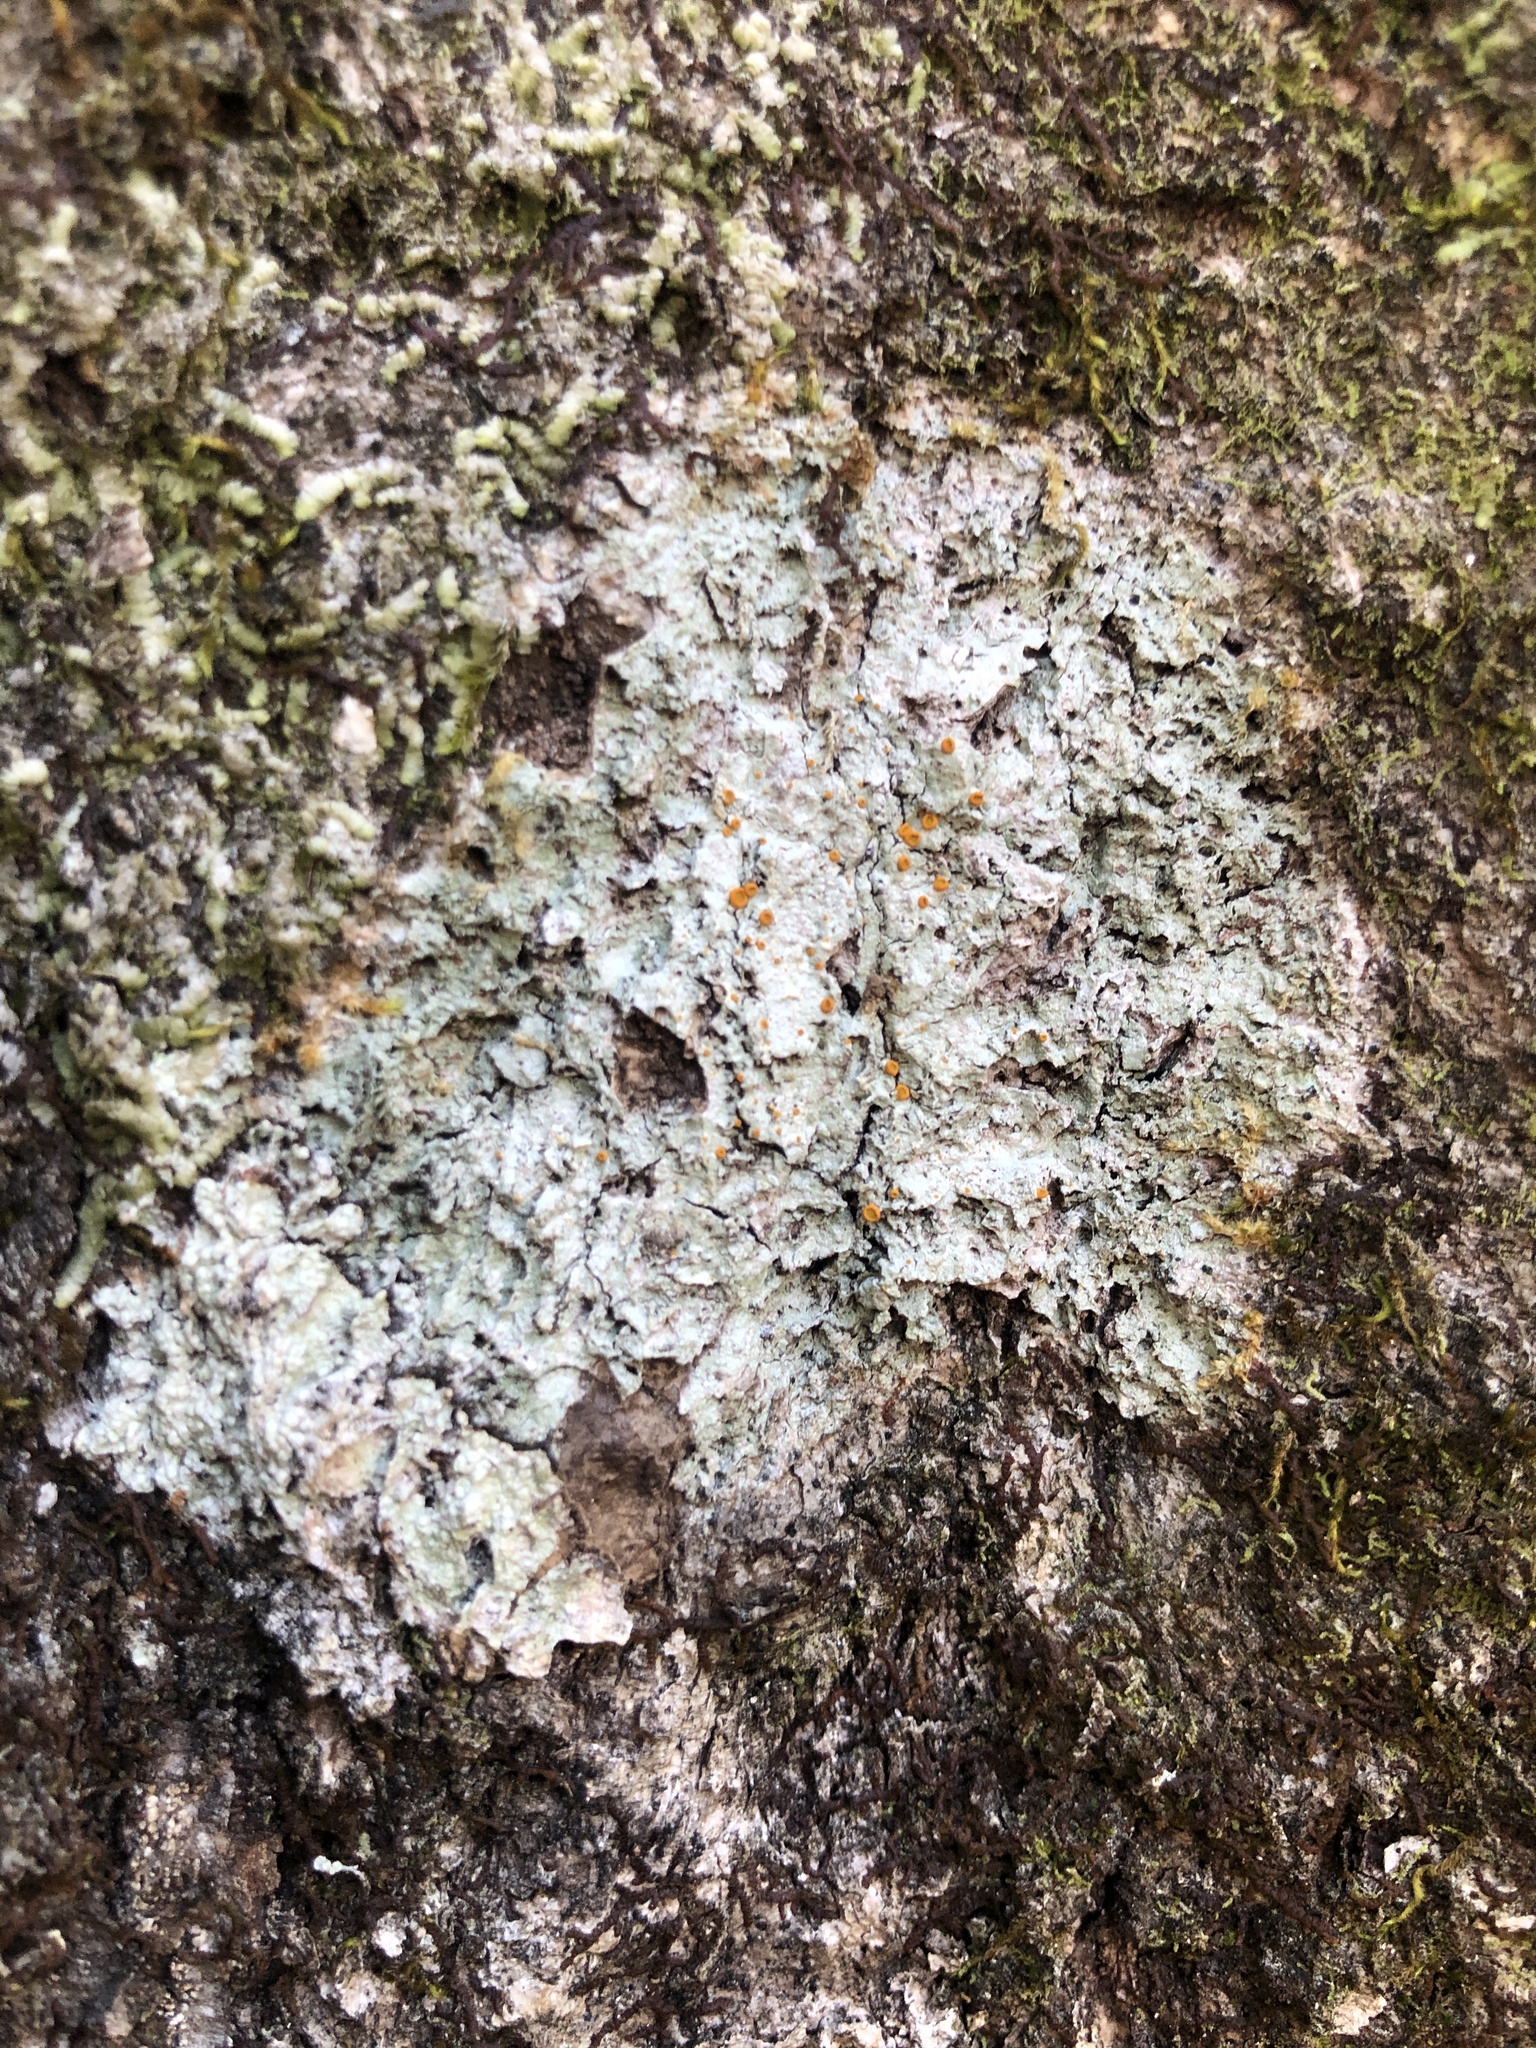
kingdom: Fungi
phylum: Ascomycota
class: Lecanoromycetes
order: Teloschistales
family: Brigantiaeaceae
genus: Brigantiaea
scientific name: Brigantiaea leucoxantha
